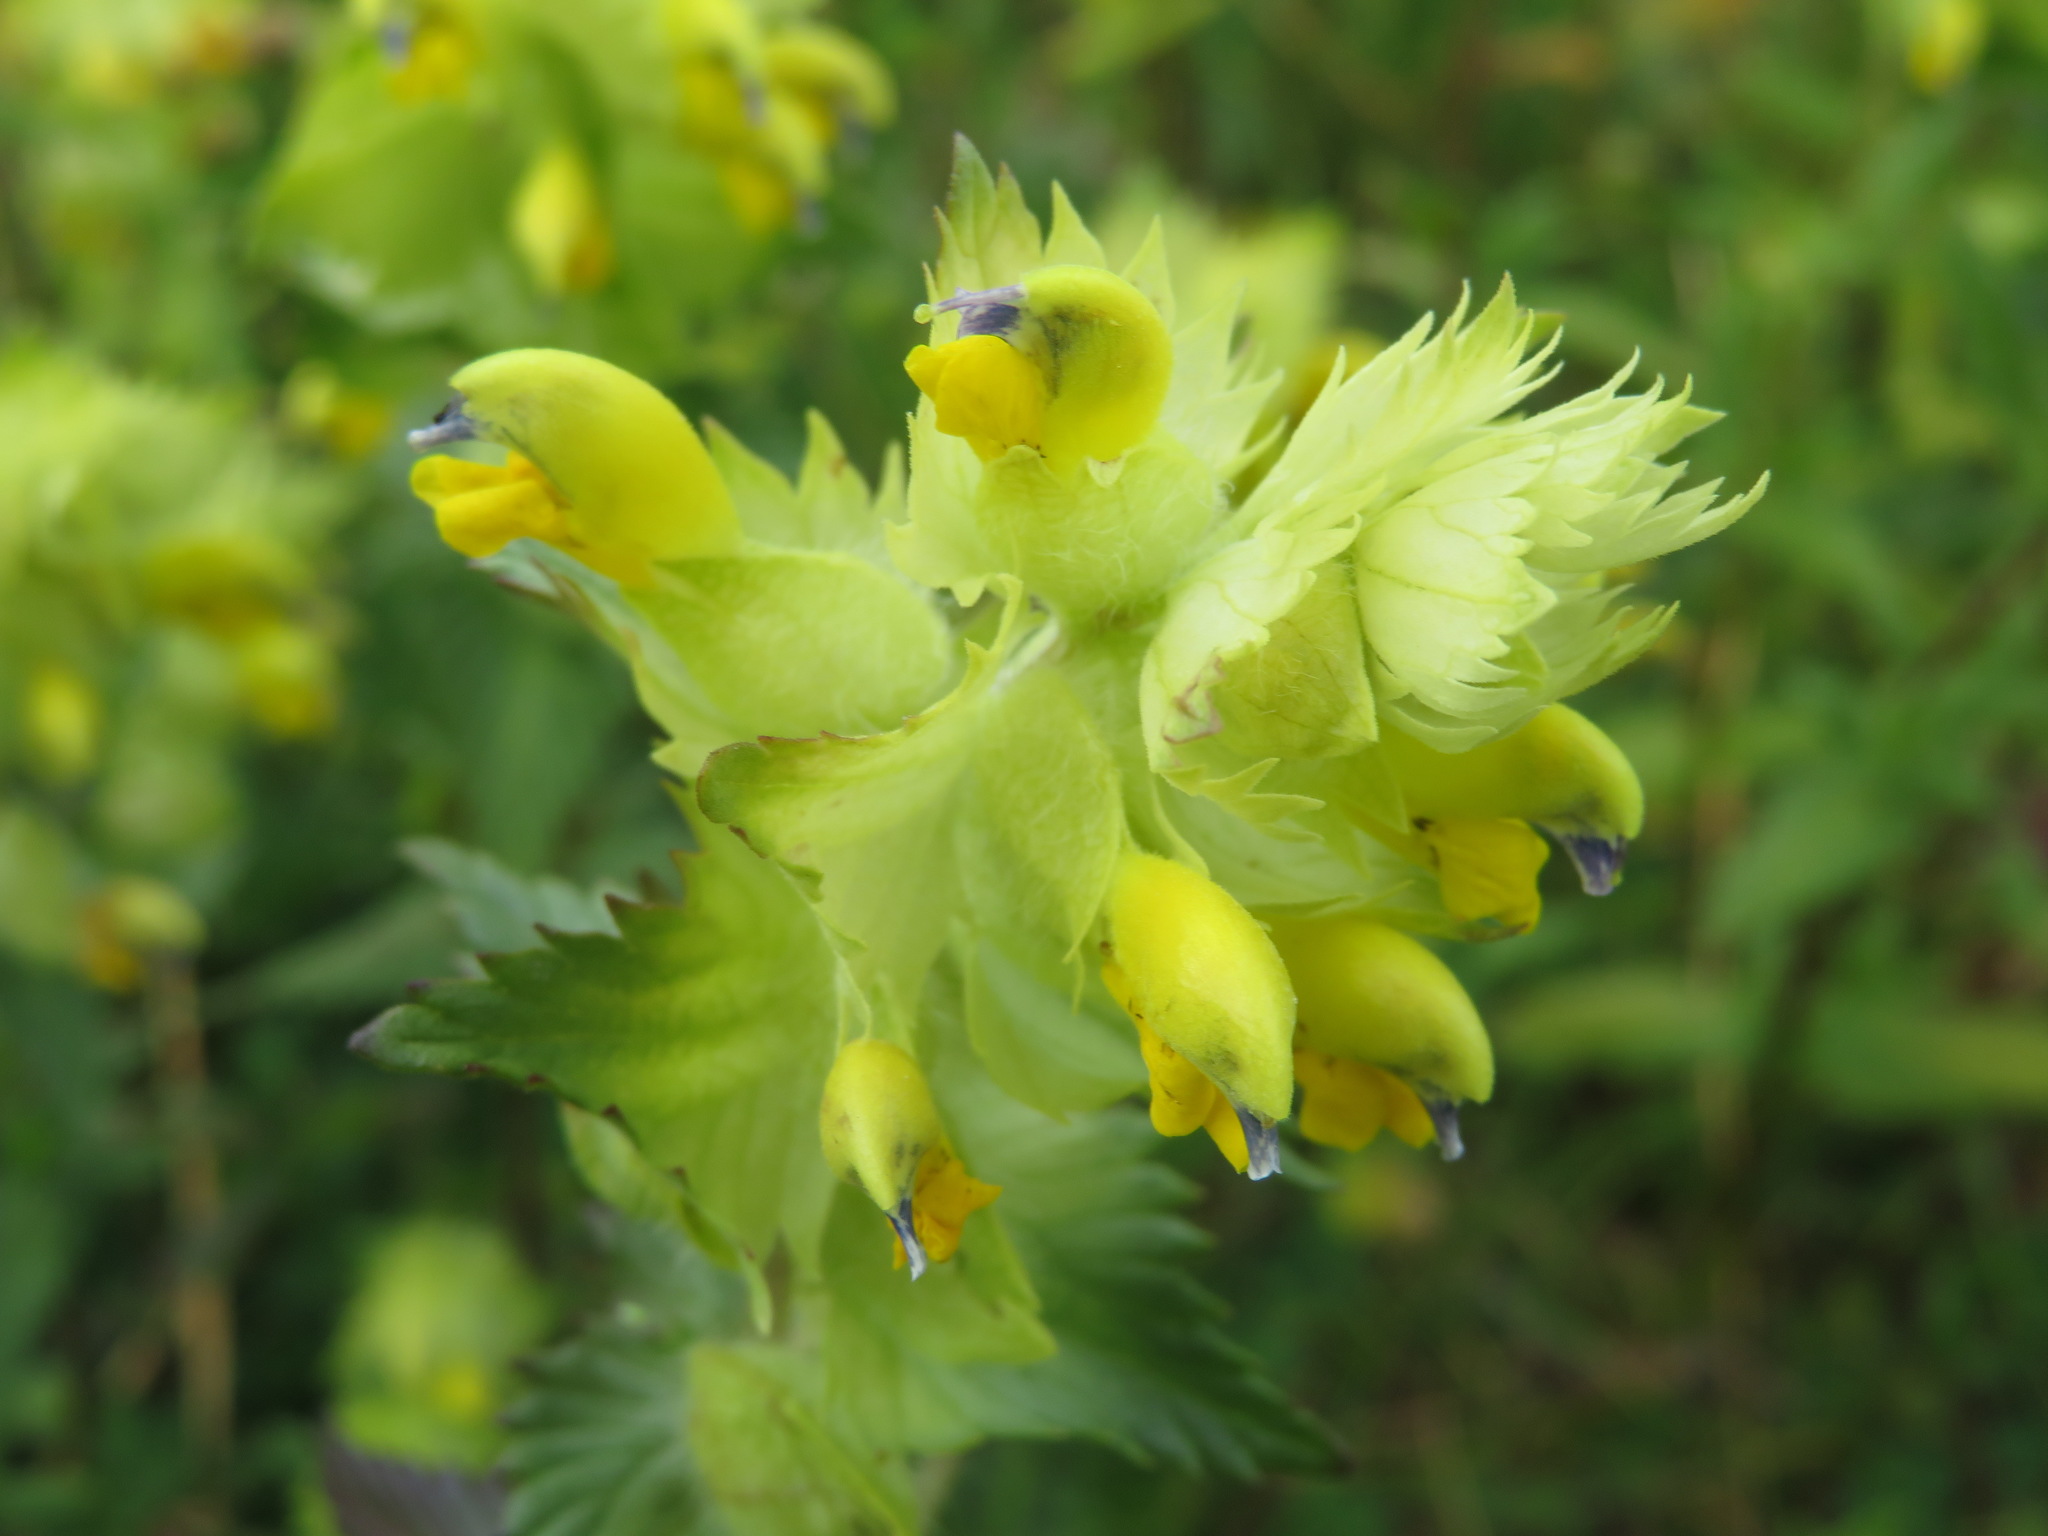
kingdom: Plantae
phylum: Tracheophyta
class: Magnoliopsida
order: Lamiales
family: Orobanchaceae
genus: Rhinanthus
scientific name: Rhinanthus alectorolophus
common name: Greater yellow-rattle
